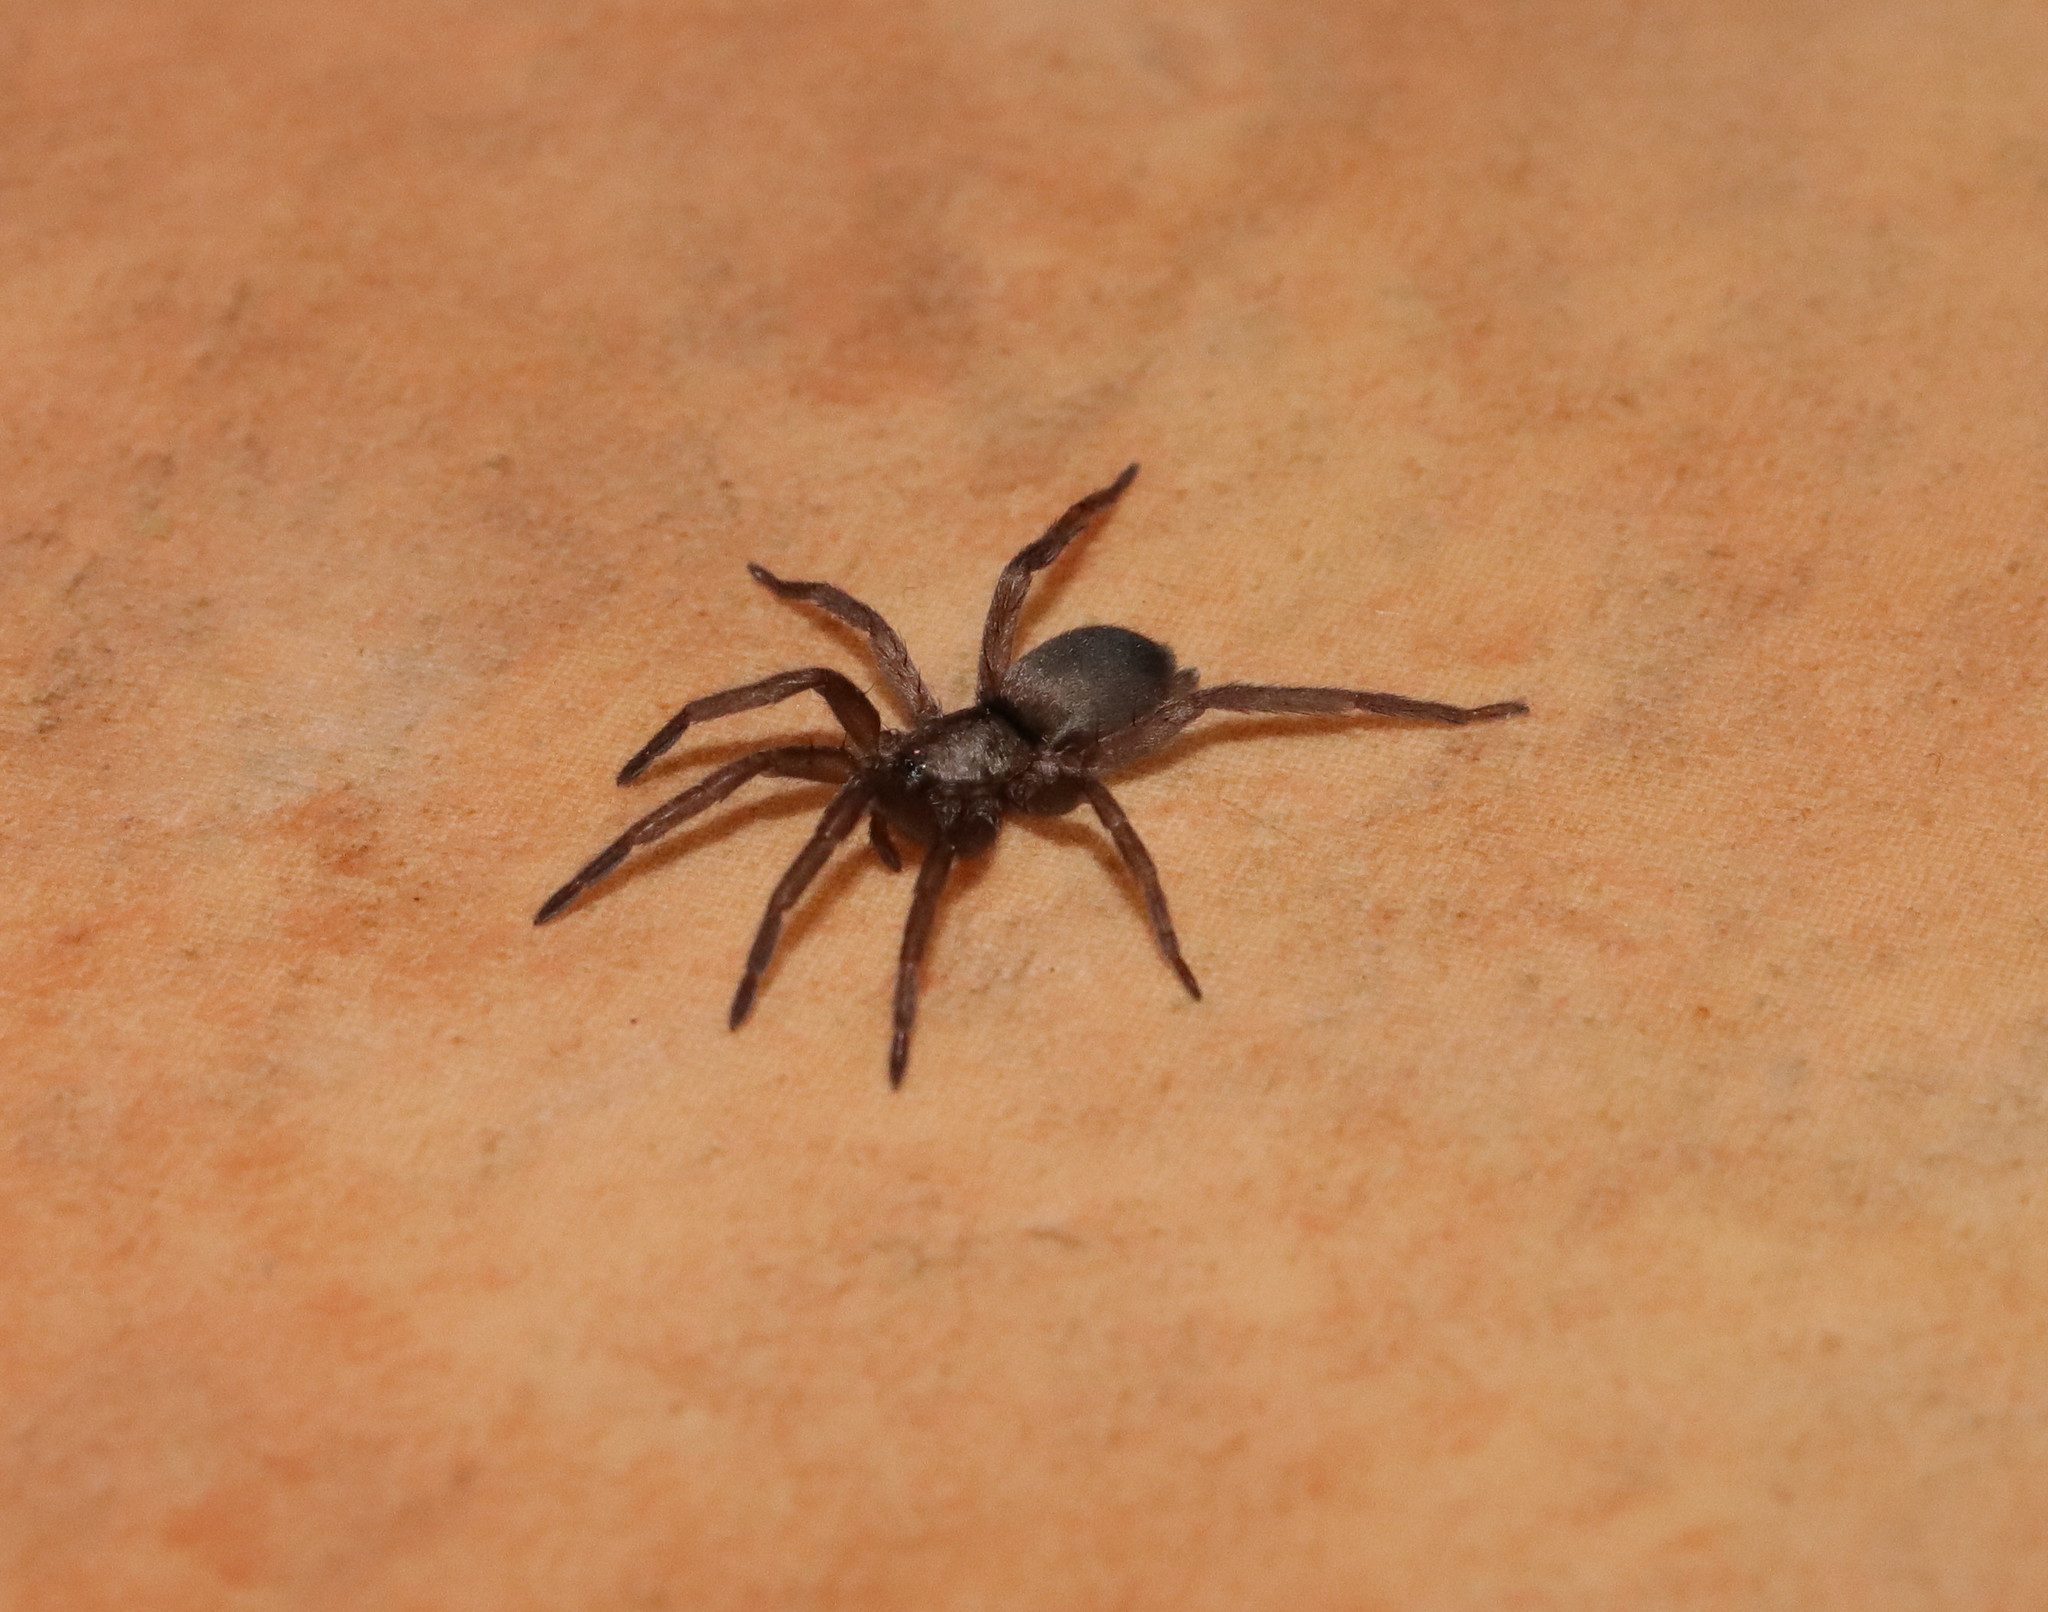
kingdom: Animalia
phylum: Arthropoda
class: Arachnida
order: Araneae
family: Gnaphosidae
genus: Hypodrassodes
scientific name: Hypodrassodes maoricus
